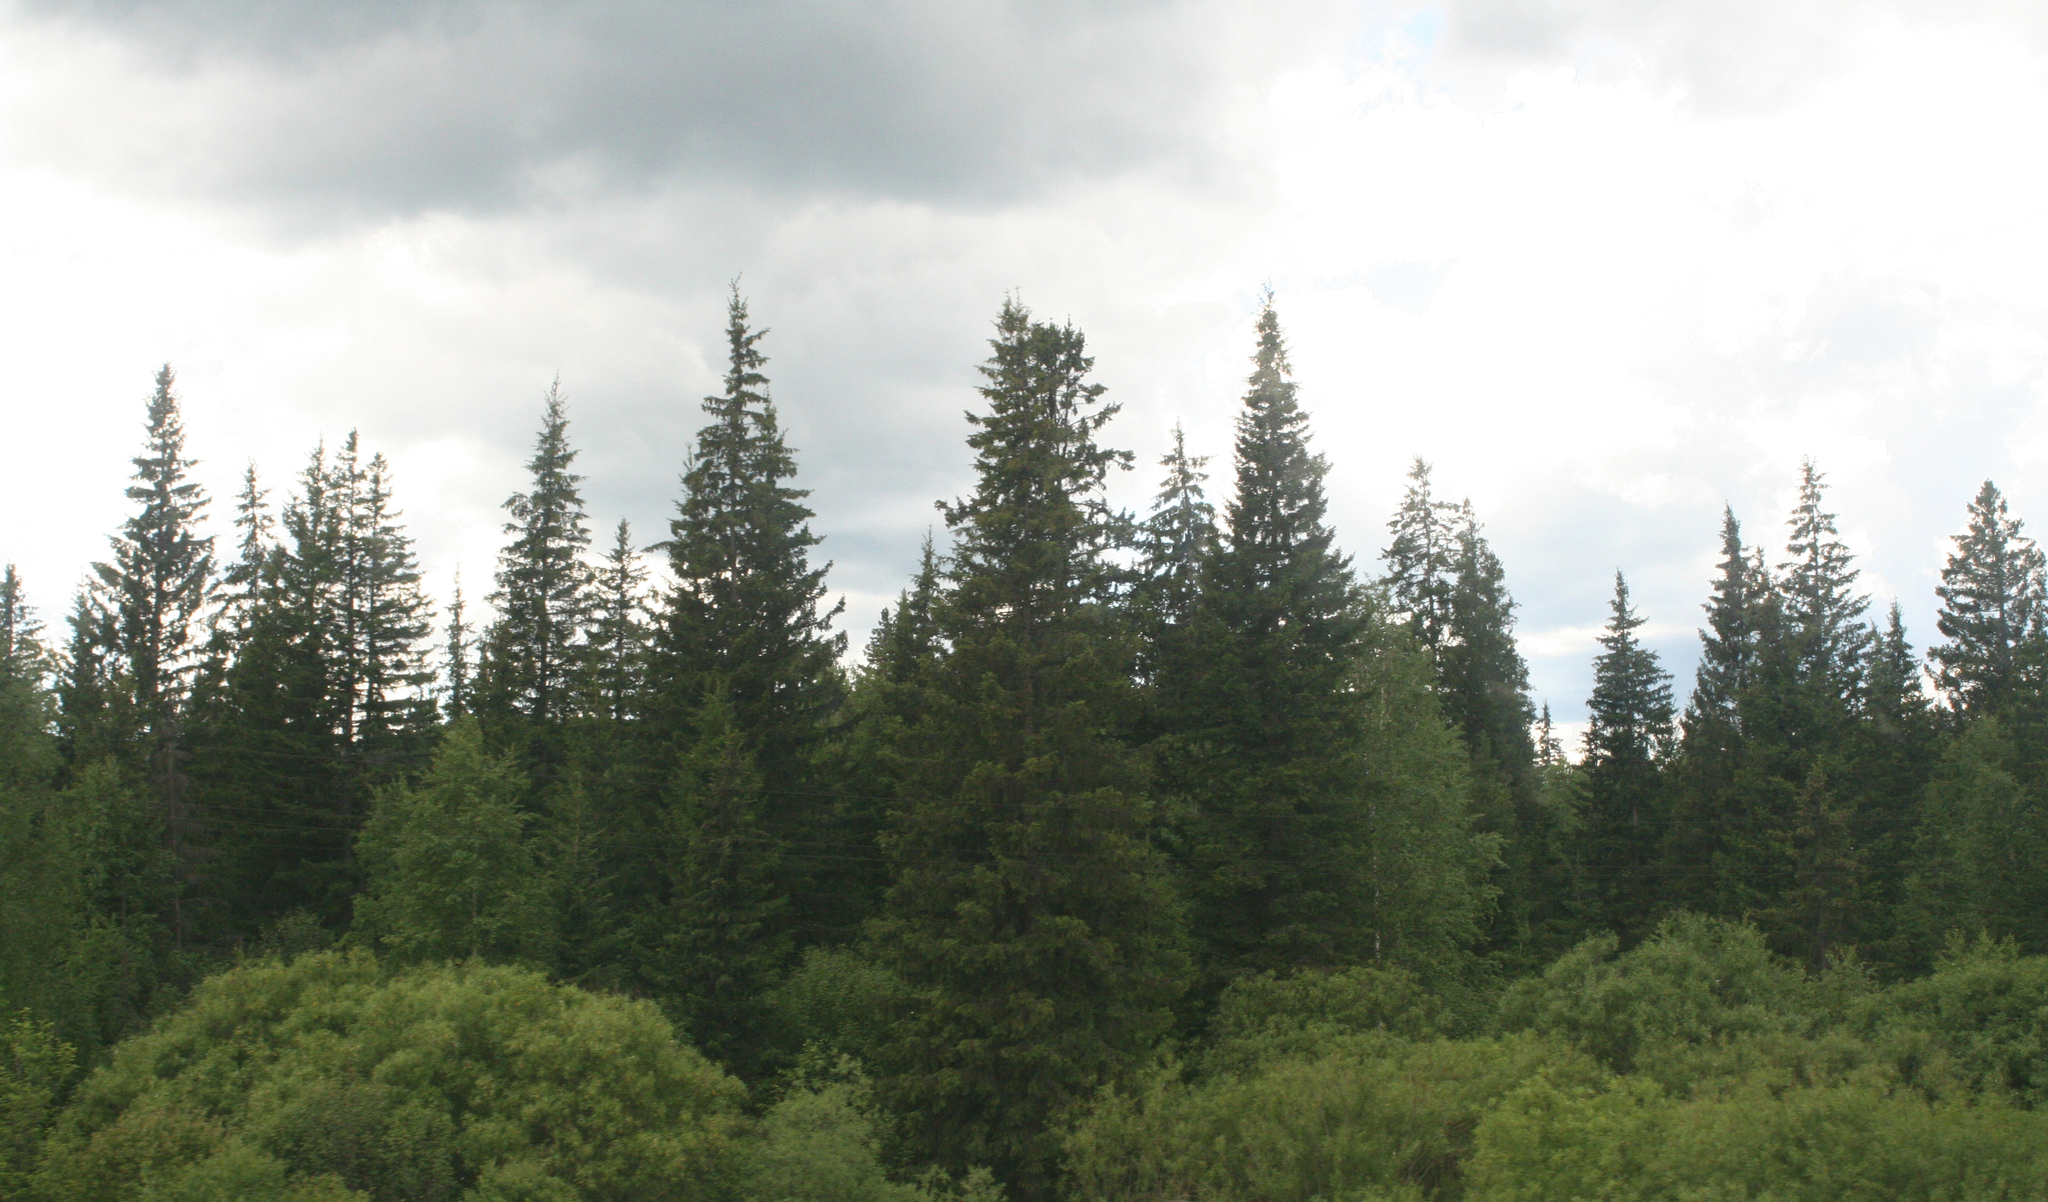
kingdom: Plantae
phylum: Tracheophyta
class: Pinopsida
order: Pinales
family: Pinaceae
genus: Picea
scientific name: Picea obovata
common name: Siberian spruce
